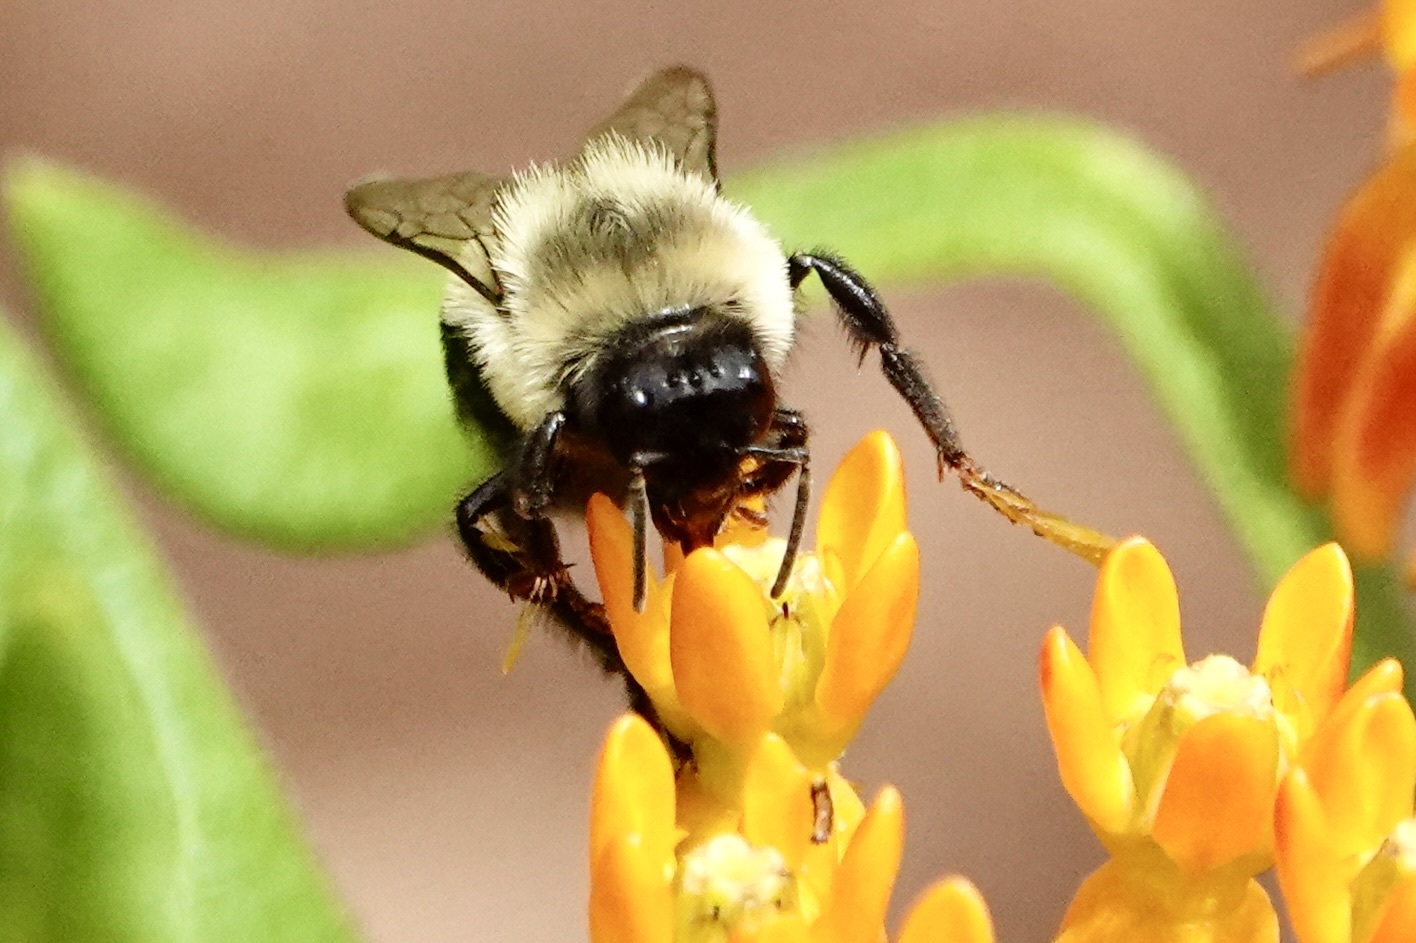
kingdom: Animalia
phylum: Arthropoda
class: Insecta
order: Hymenoptera
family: Apidae
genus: Bombus
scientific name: Bombus impatiens
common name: Common eastern bumble bee
